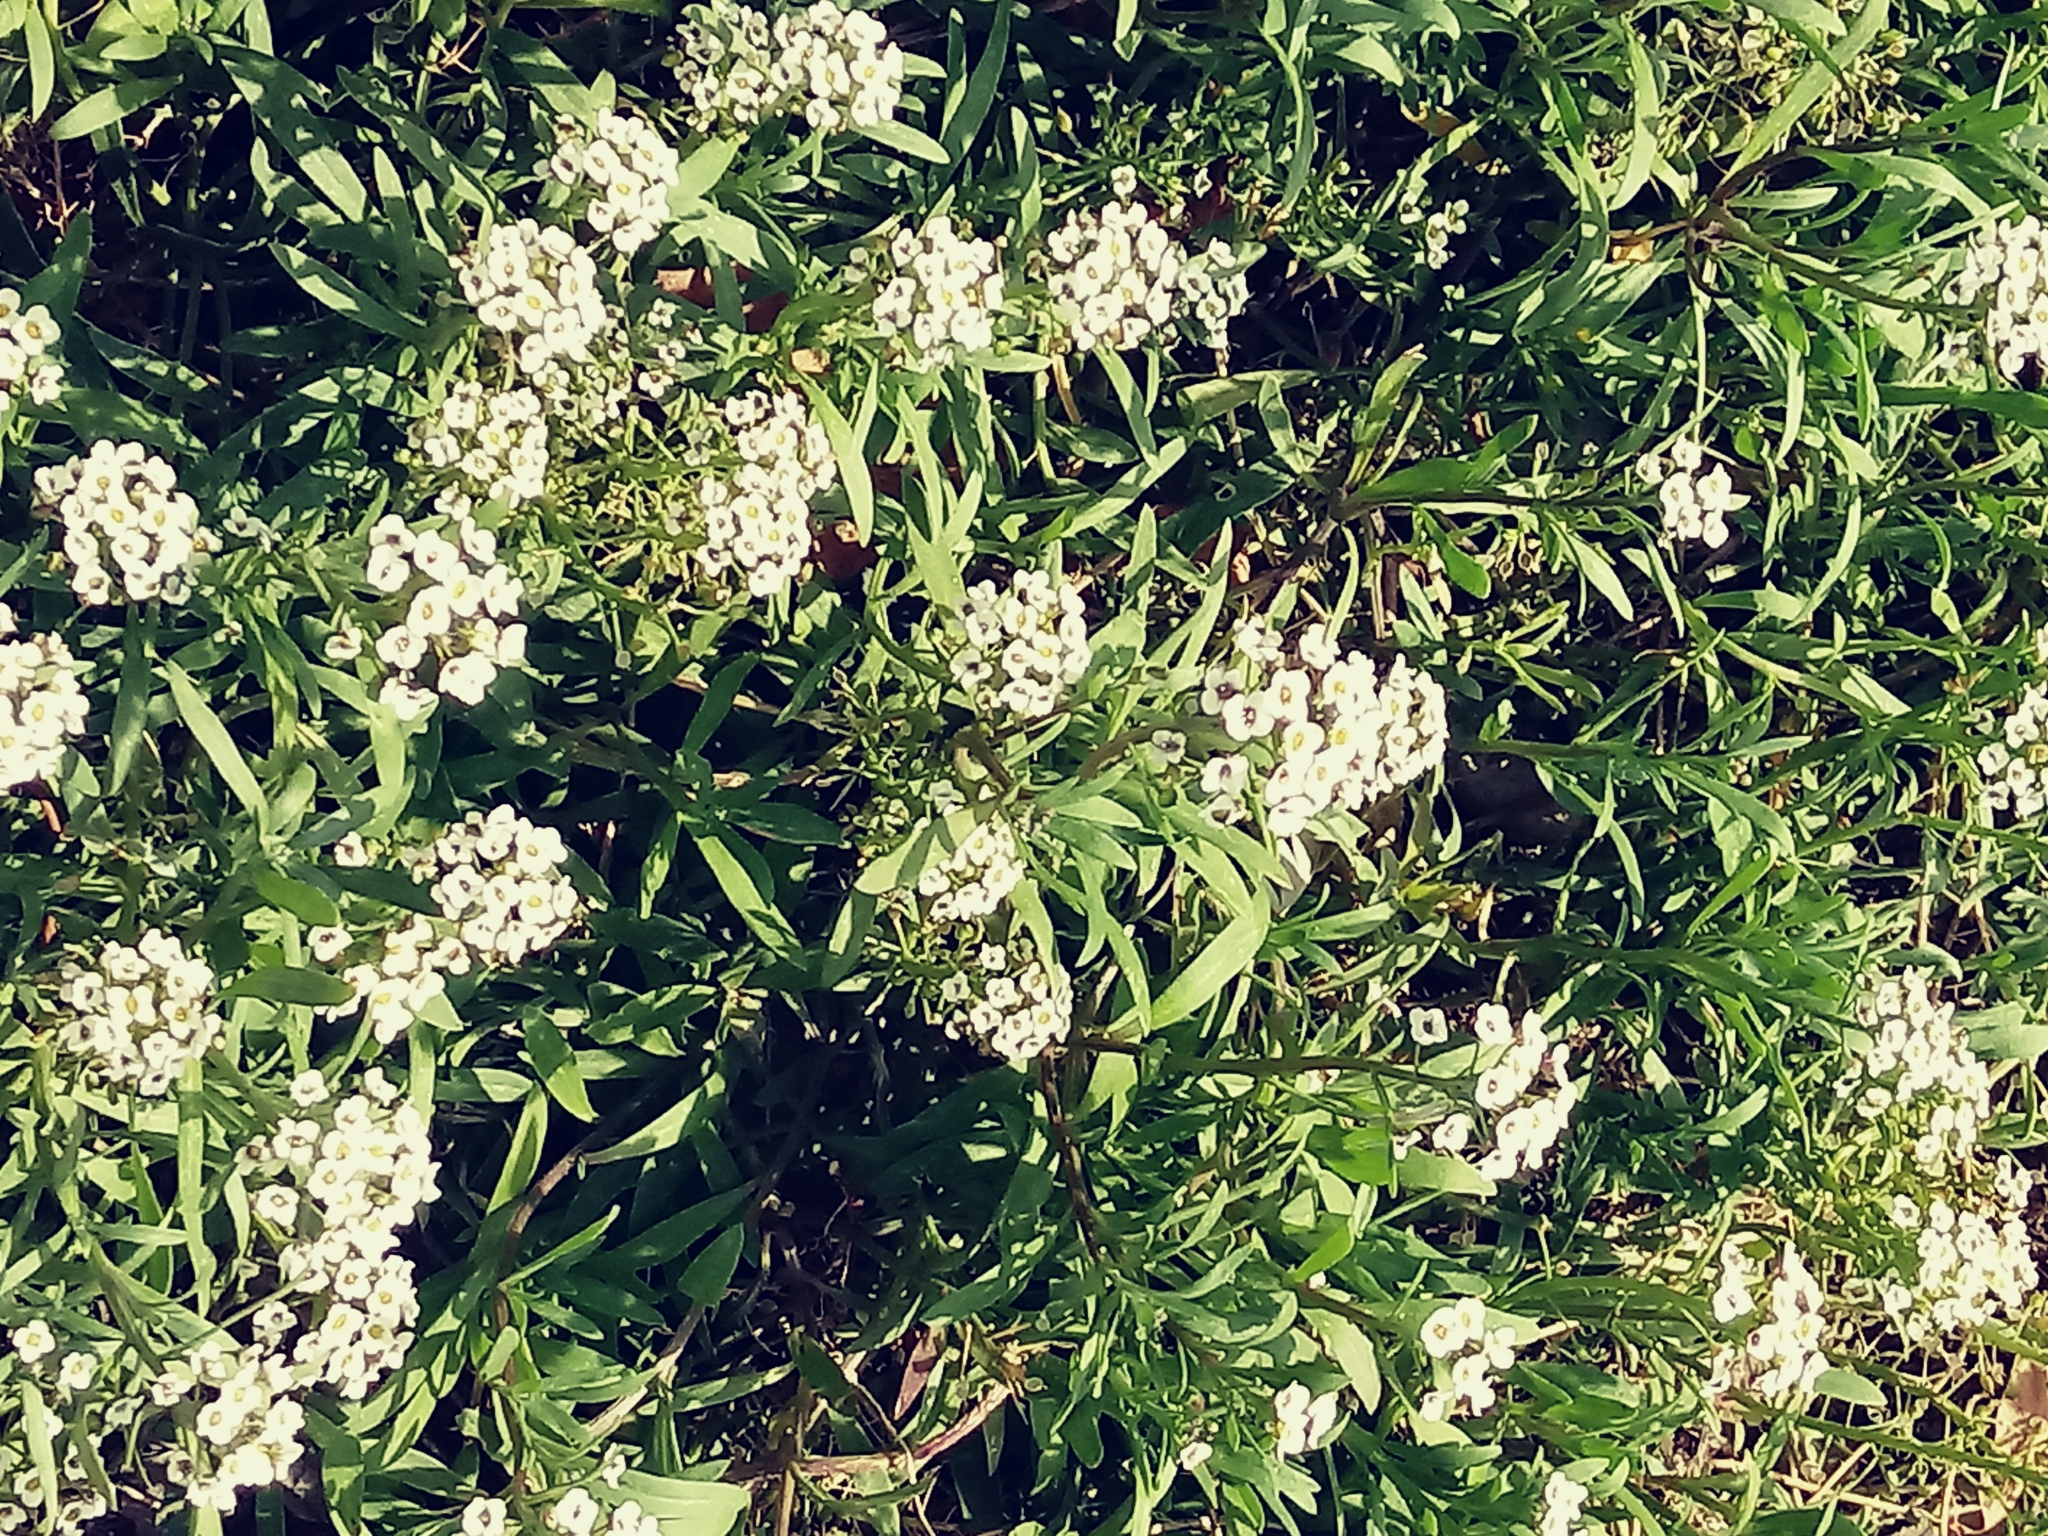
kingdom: Plantae
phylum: Tracheophyta
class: Magnoliopsida
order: Brassicales
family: Brassicaceae
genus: Lobularia
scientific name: Lobularia maritima
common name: Sweet alison
